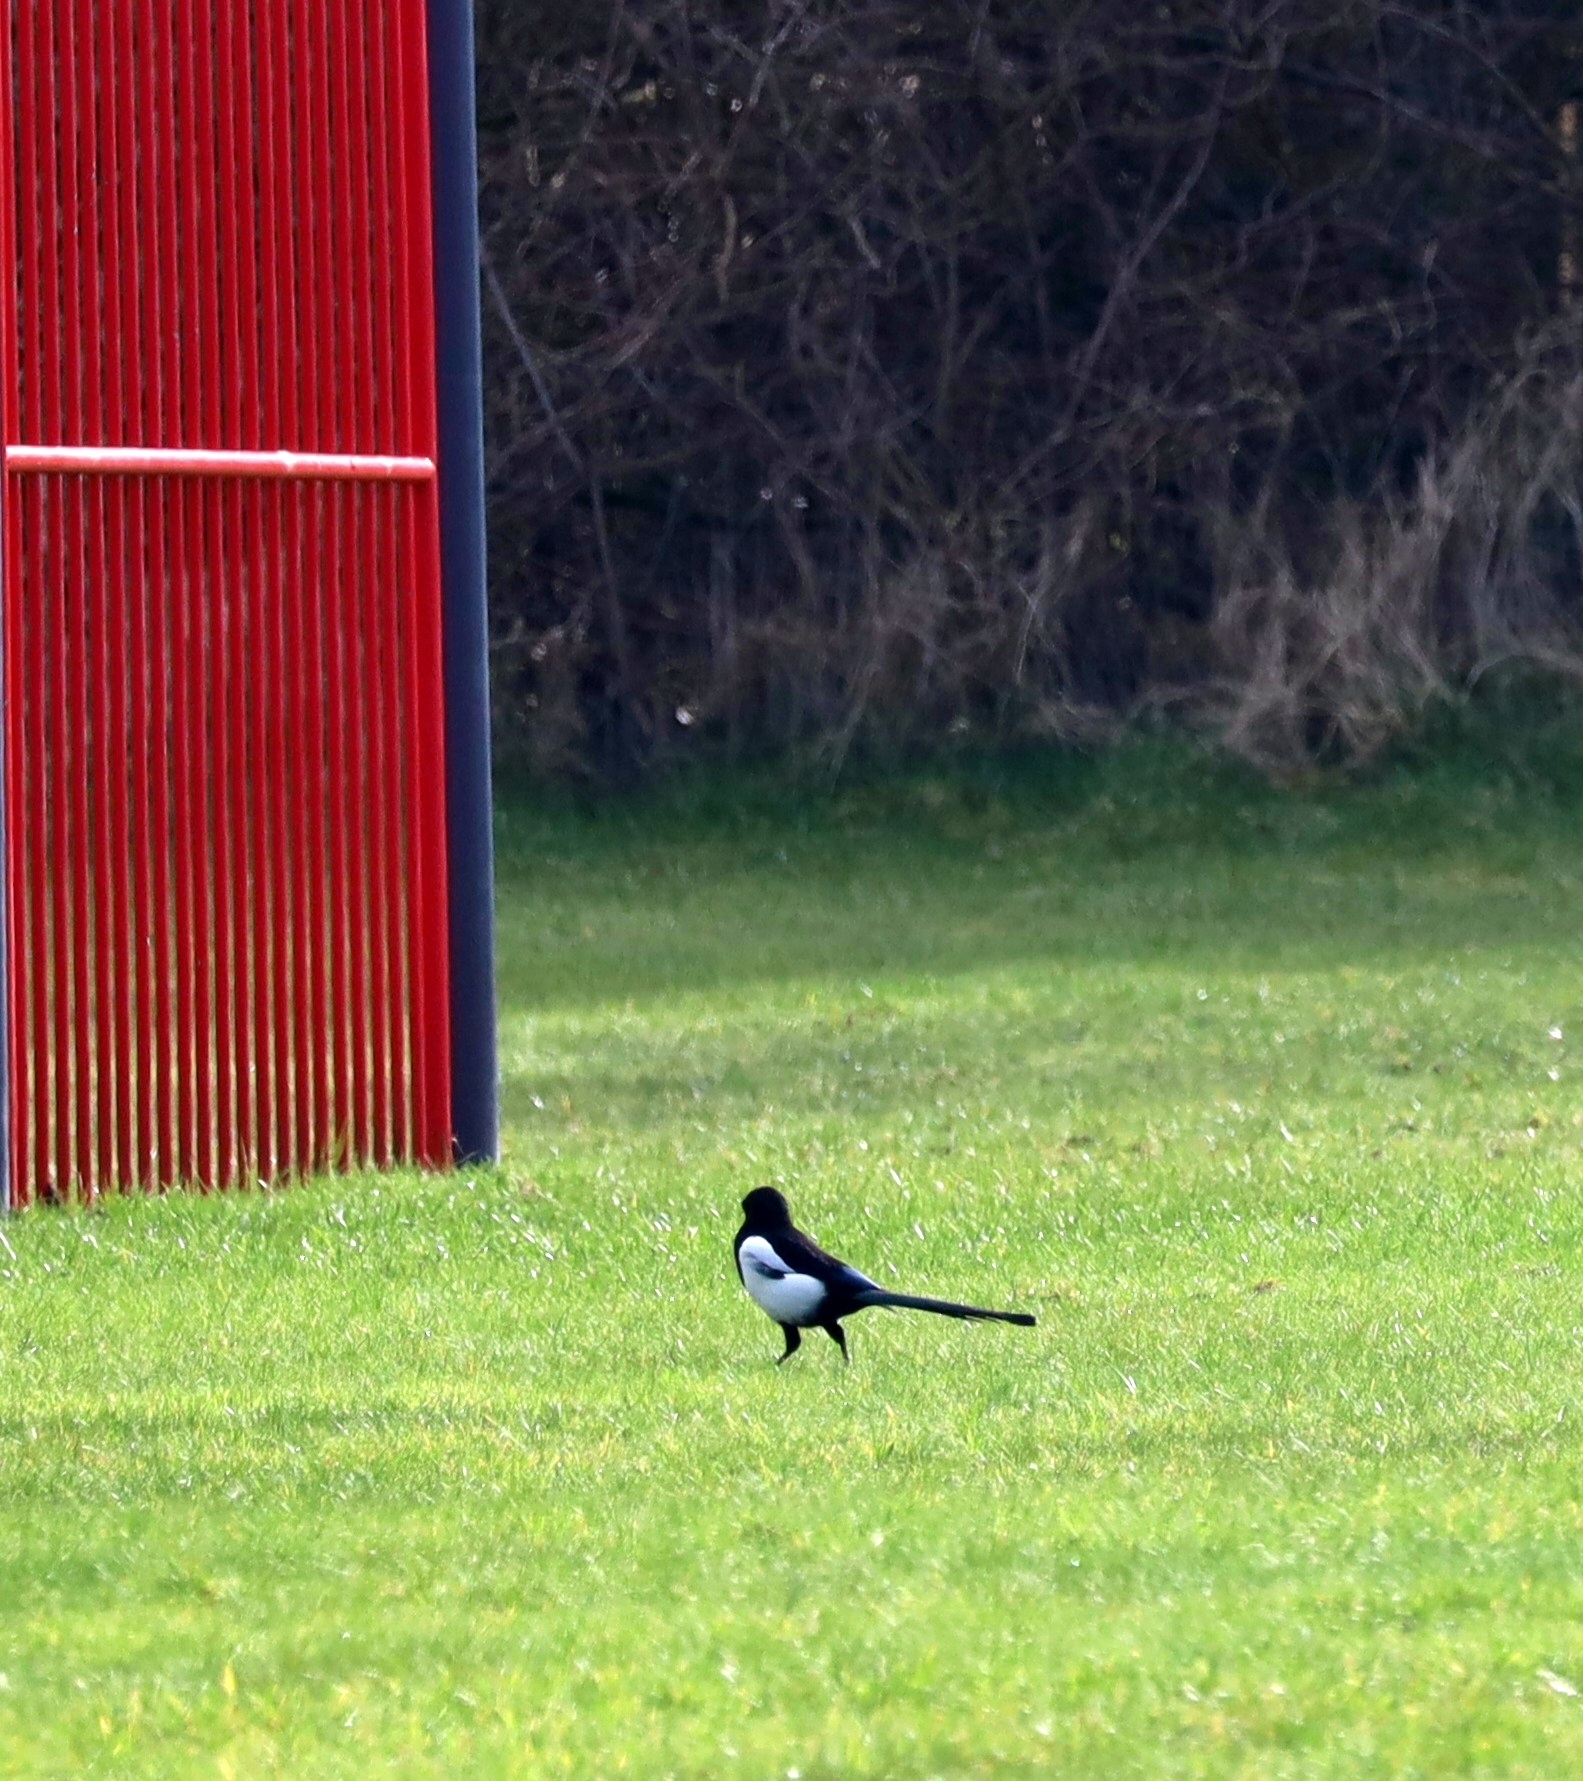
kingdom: Animalia
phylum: Chordata
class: Aves
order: Passeriformes
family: Corvidae
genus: Pica
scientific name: Pica pica
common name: Eurasian magpie
